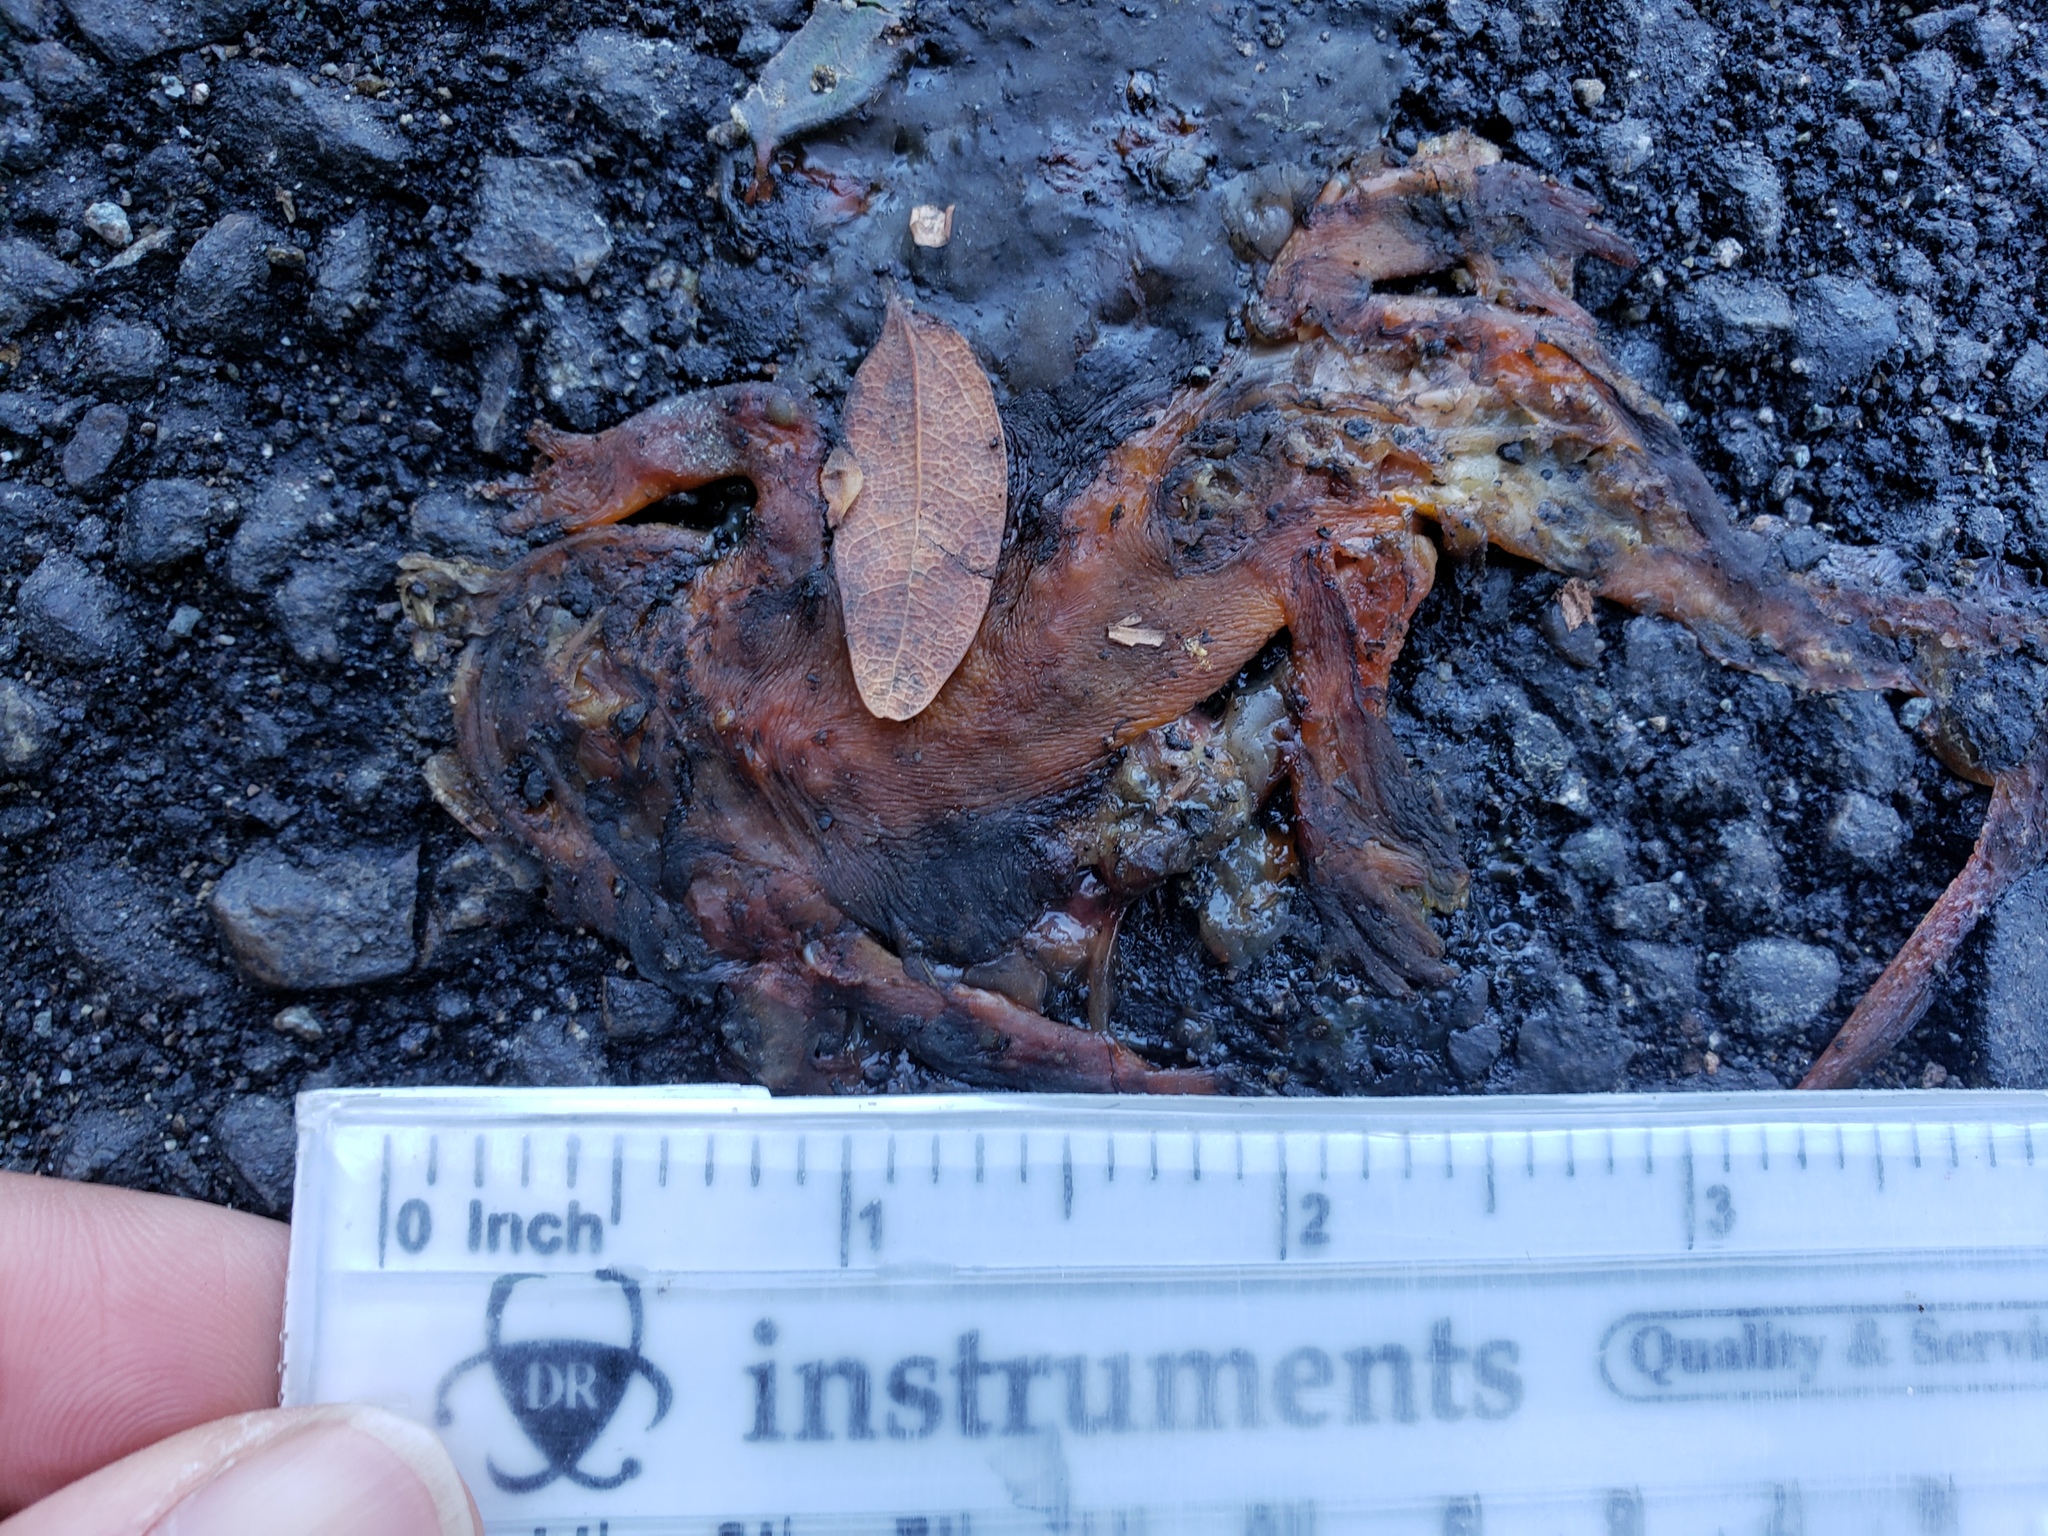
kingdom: Animalia
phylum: Chordata
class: Amphibia
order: Caudata
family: Salamandridae
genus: Taricha
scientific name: Taricha
